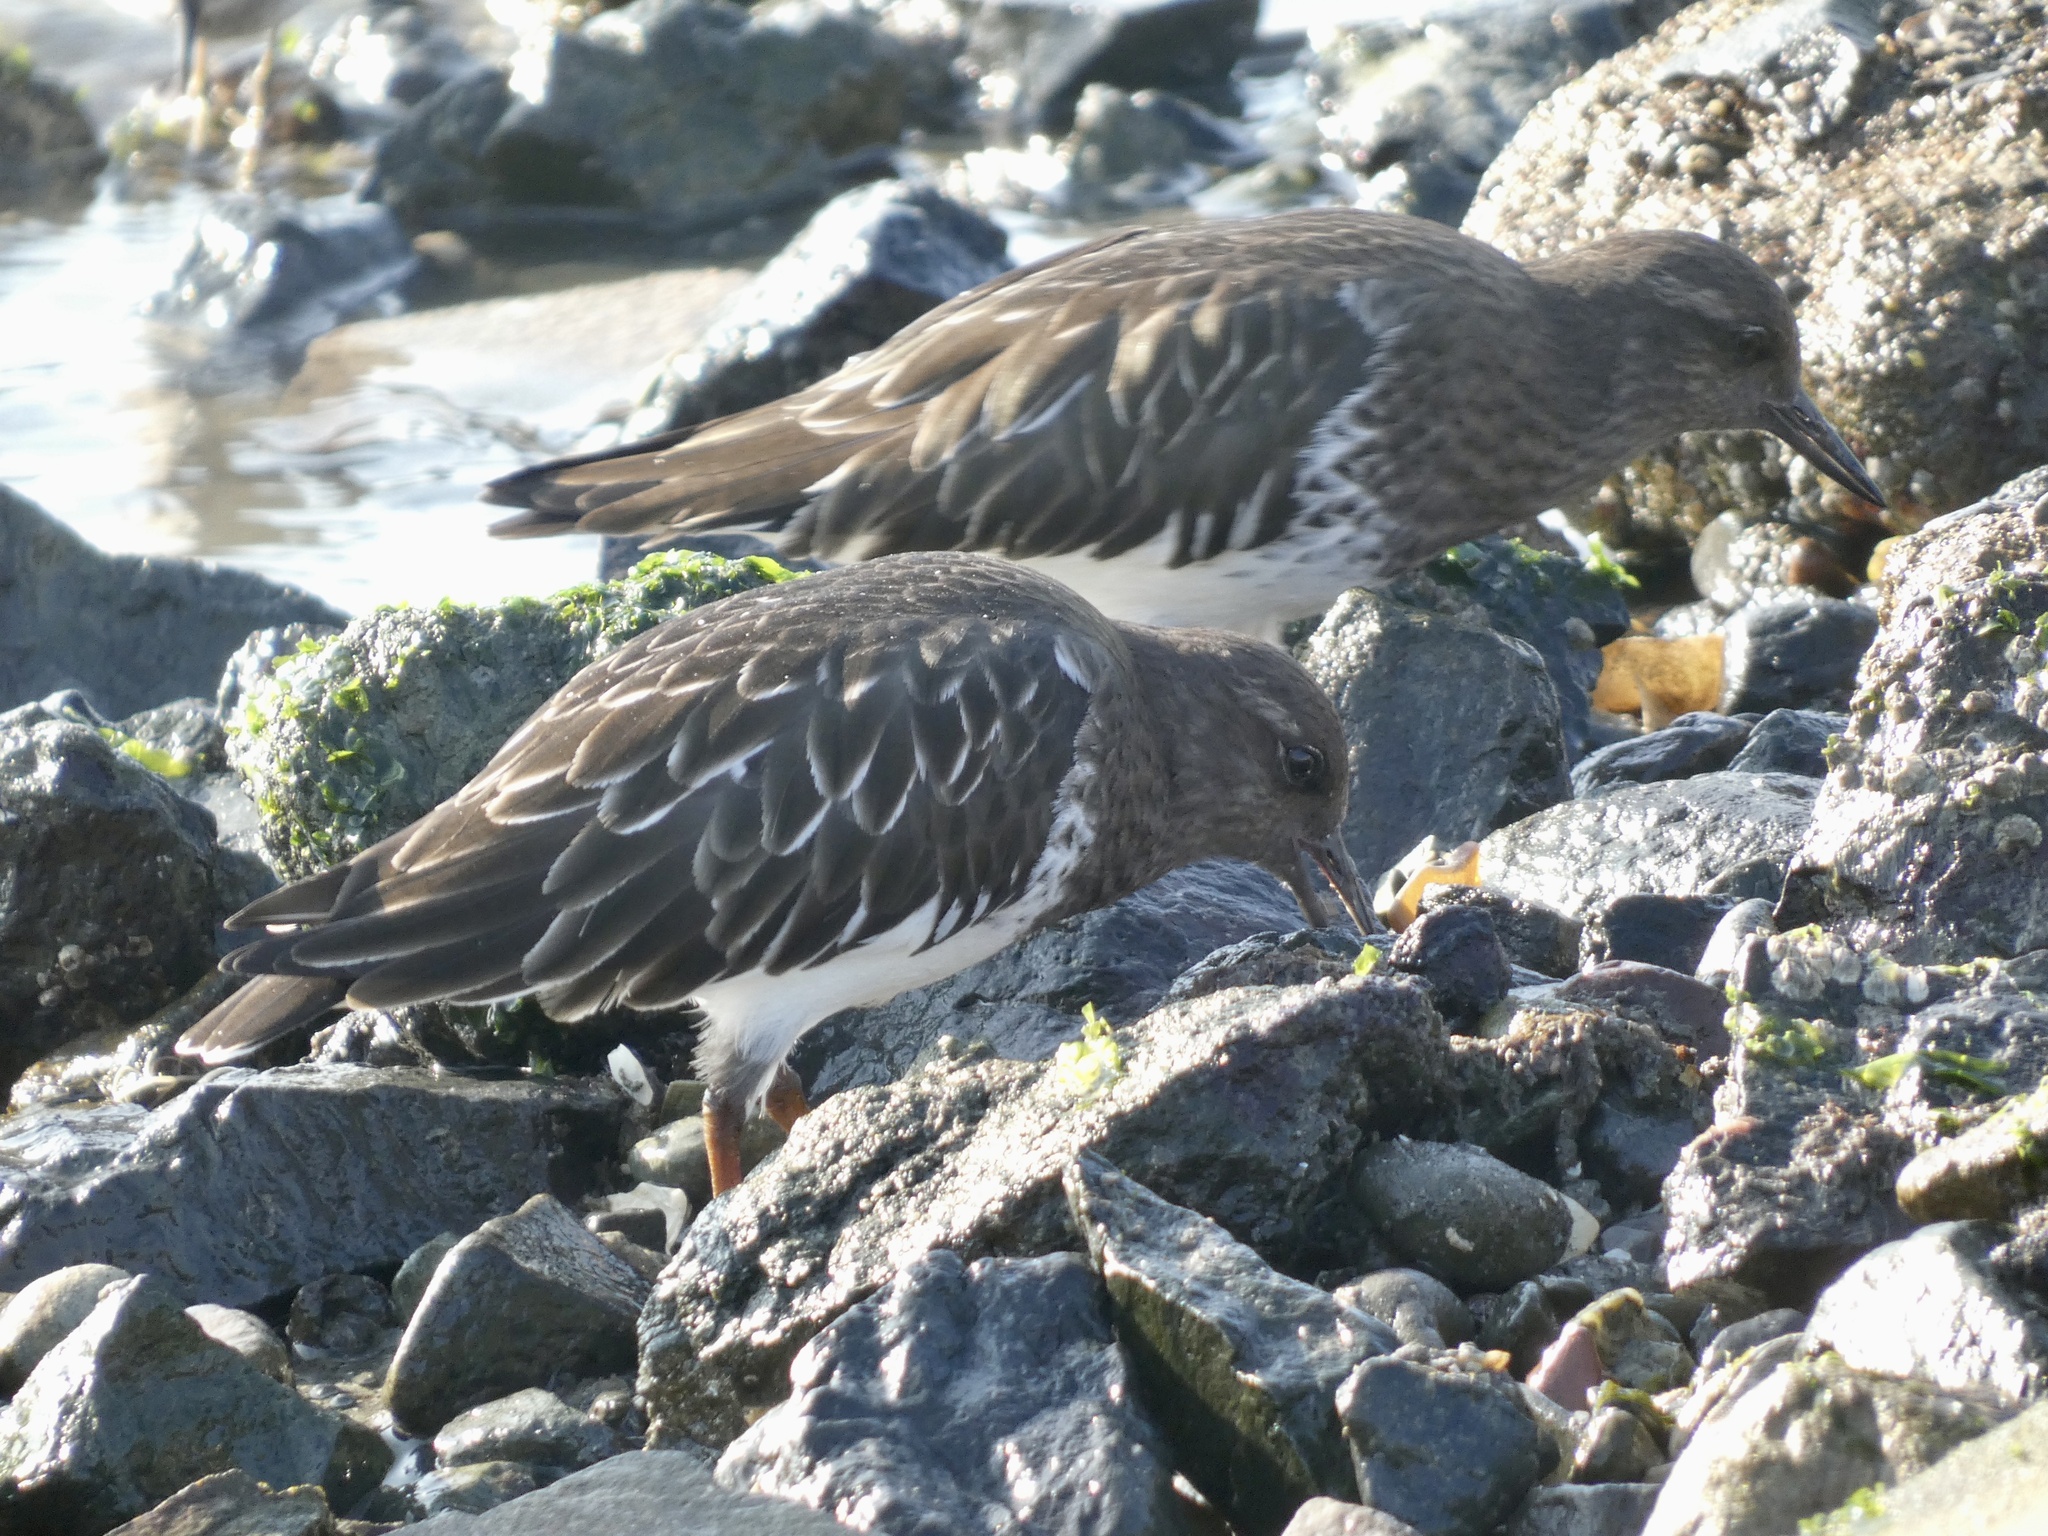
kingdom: Animalia
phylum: Chordata
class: Aves
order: Charadriiformes
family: Scolopacidae
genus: Arenaria
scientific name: Arenaria melanocephala
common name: Black turnstone
